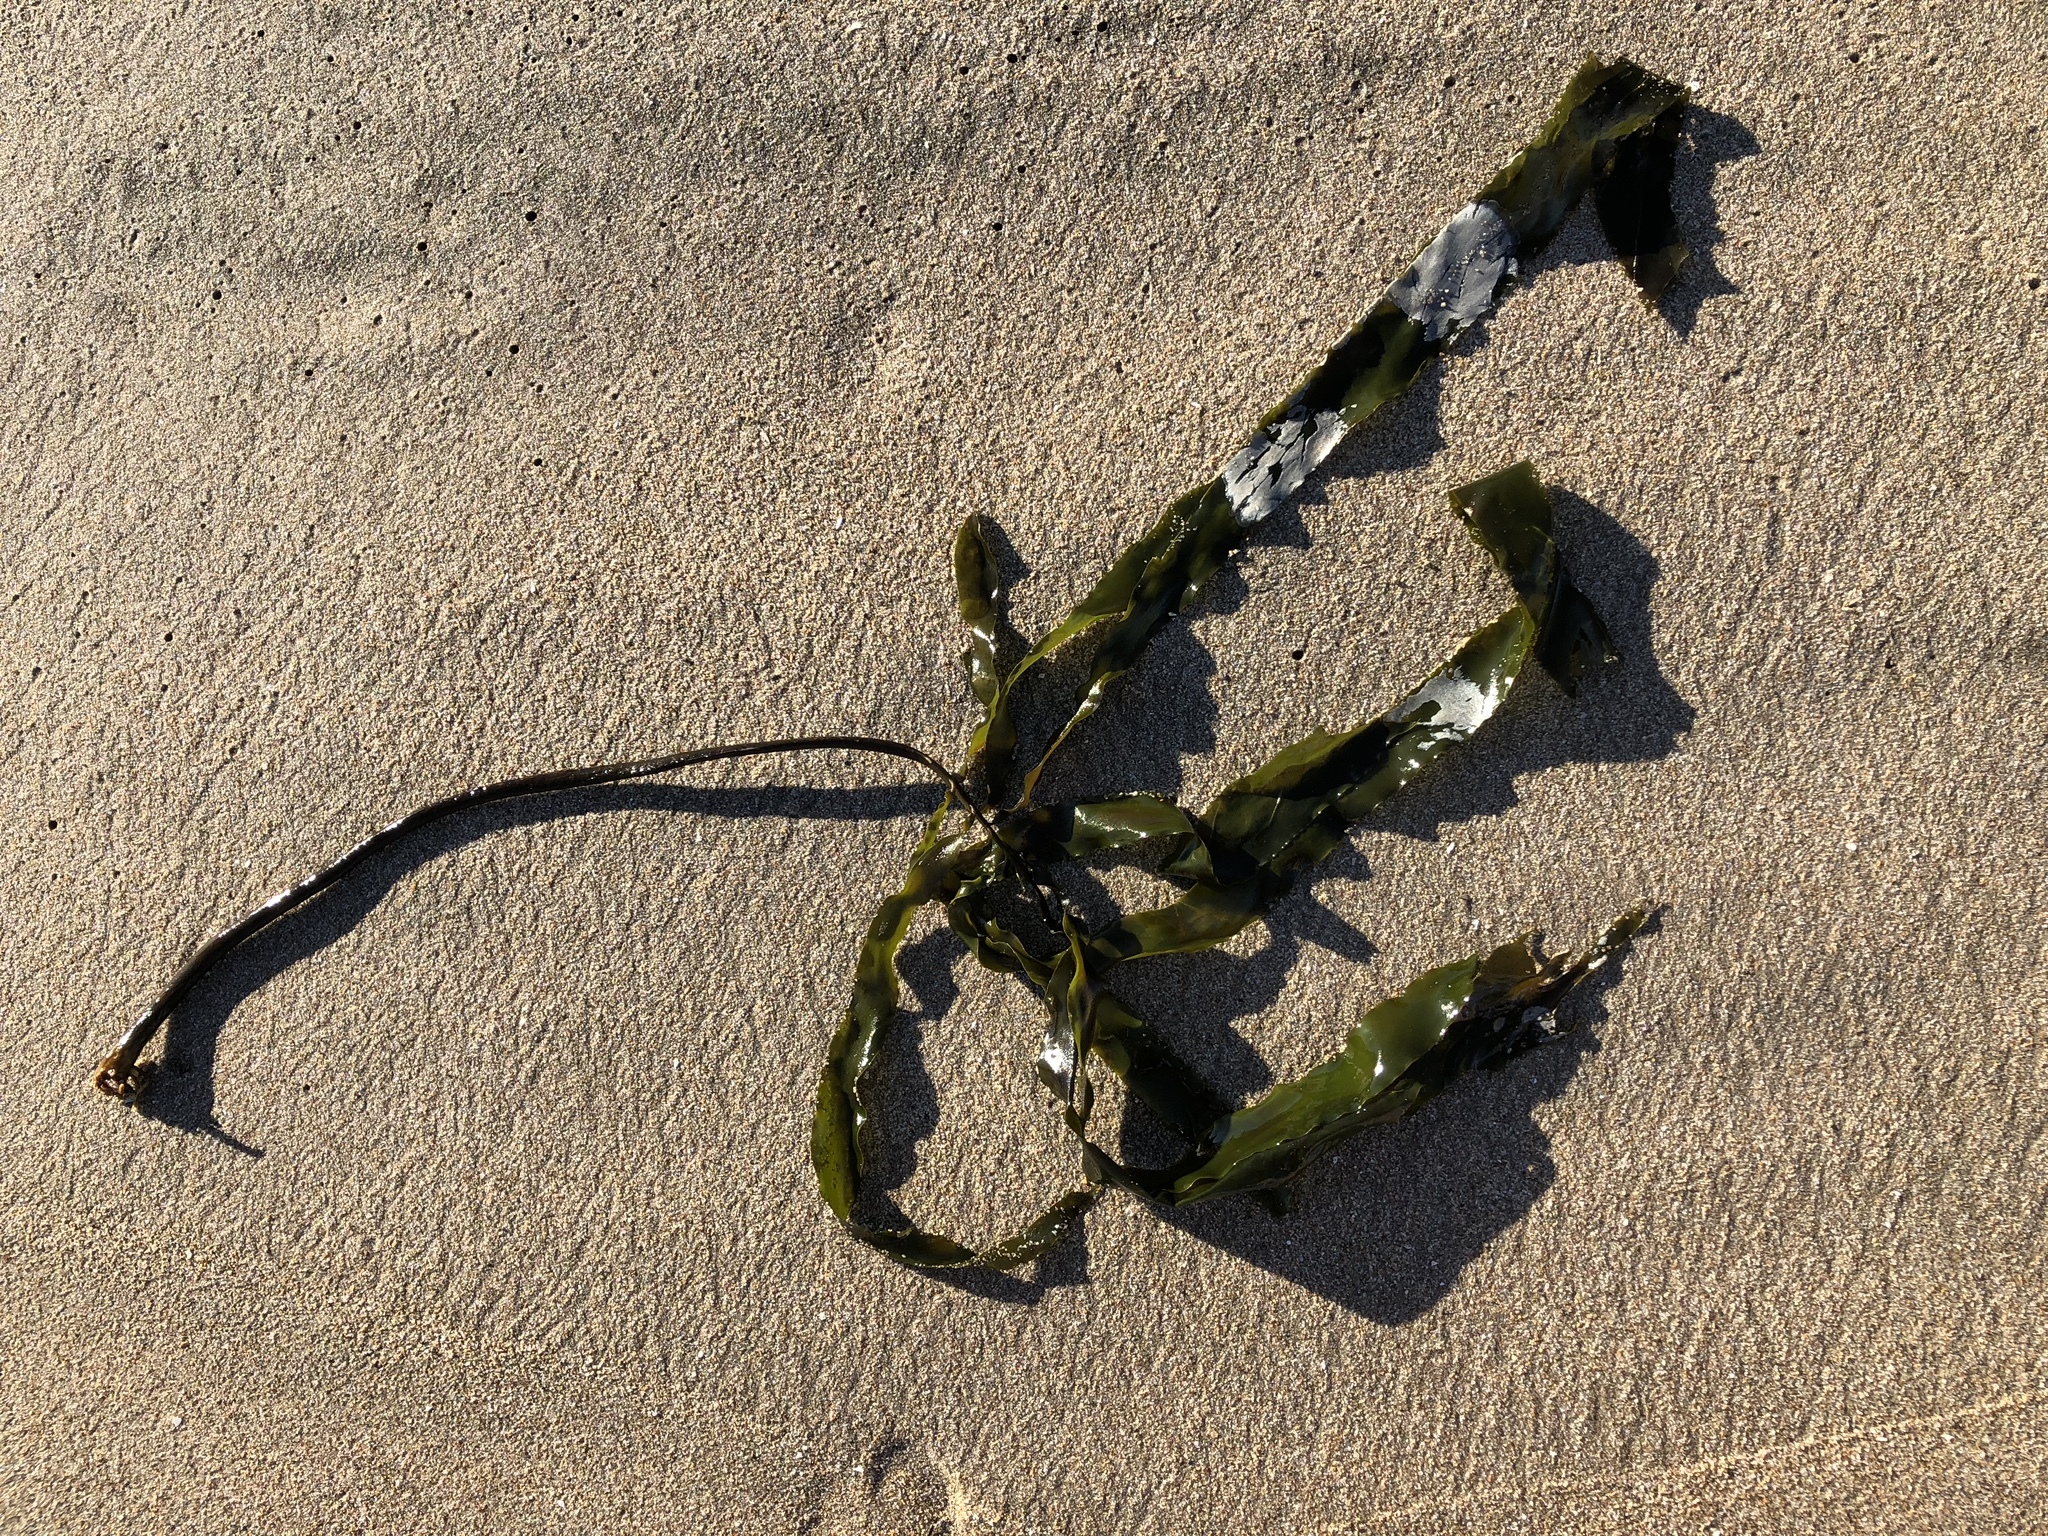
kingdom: Chromista
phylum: Ochrophyta
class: Phaeophyceae
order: Laminariales
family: Alariaceae
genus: Pterygophora
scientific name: Pterygophora californica
